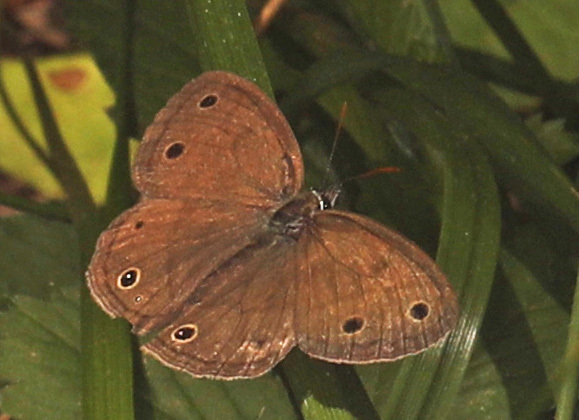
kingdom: Animalia
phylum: Arthropoda
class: Insecta
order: Lepidoptera
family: Nymphalidae
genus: Euptychia
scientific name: Euptychia cymela
